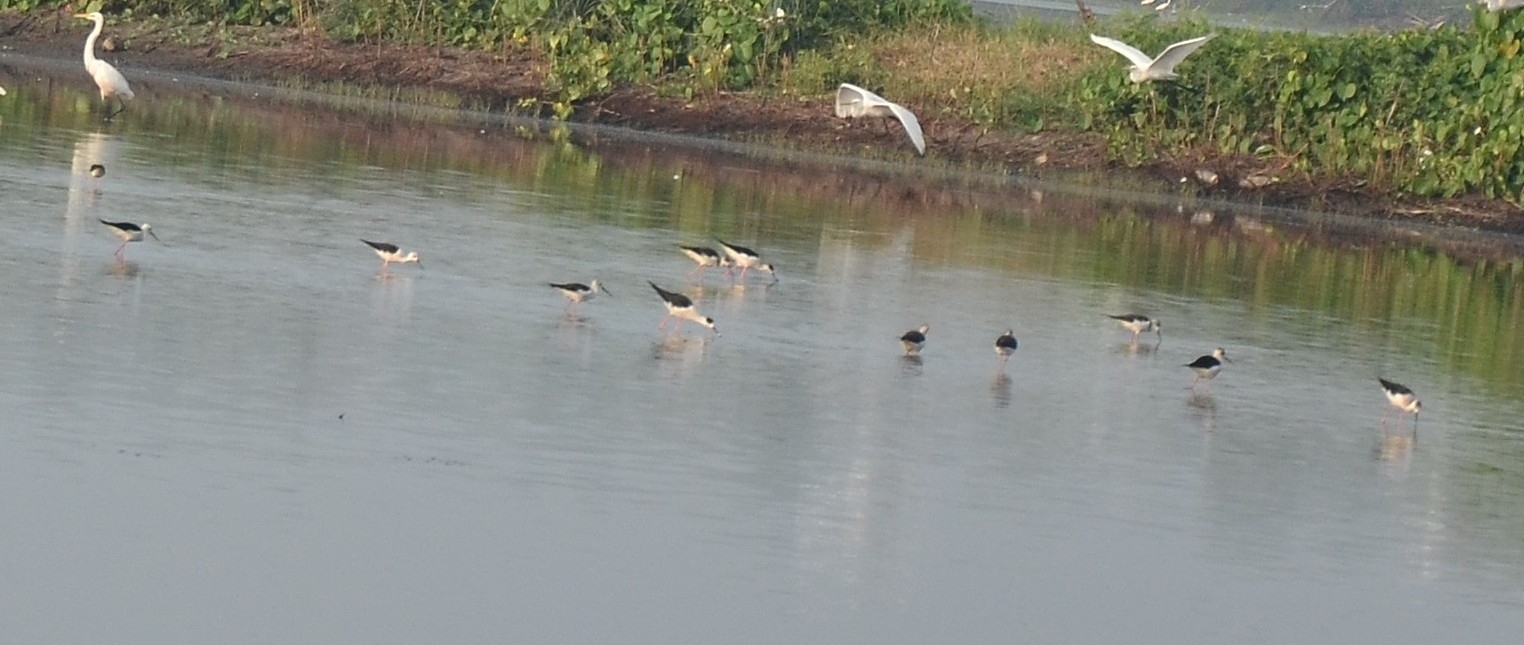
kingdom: Animalia
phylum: Chordata
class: Aves
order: Charadriiformes
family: Recurvirostridae
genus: Himantopus
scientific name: Himantopus himantopus
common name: Black-winged stilt
